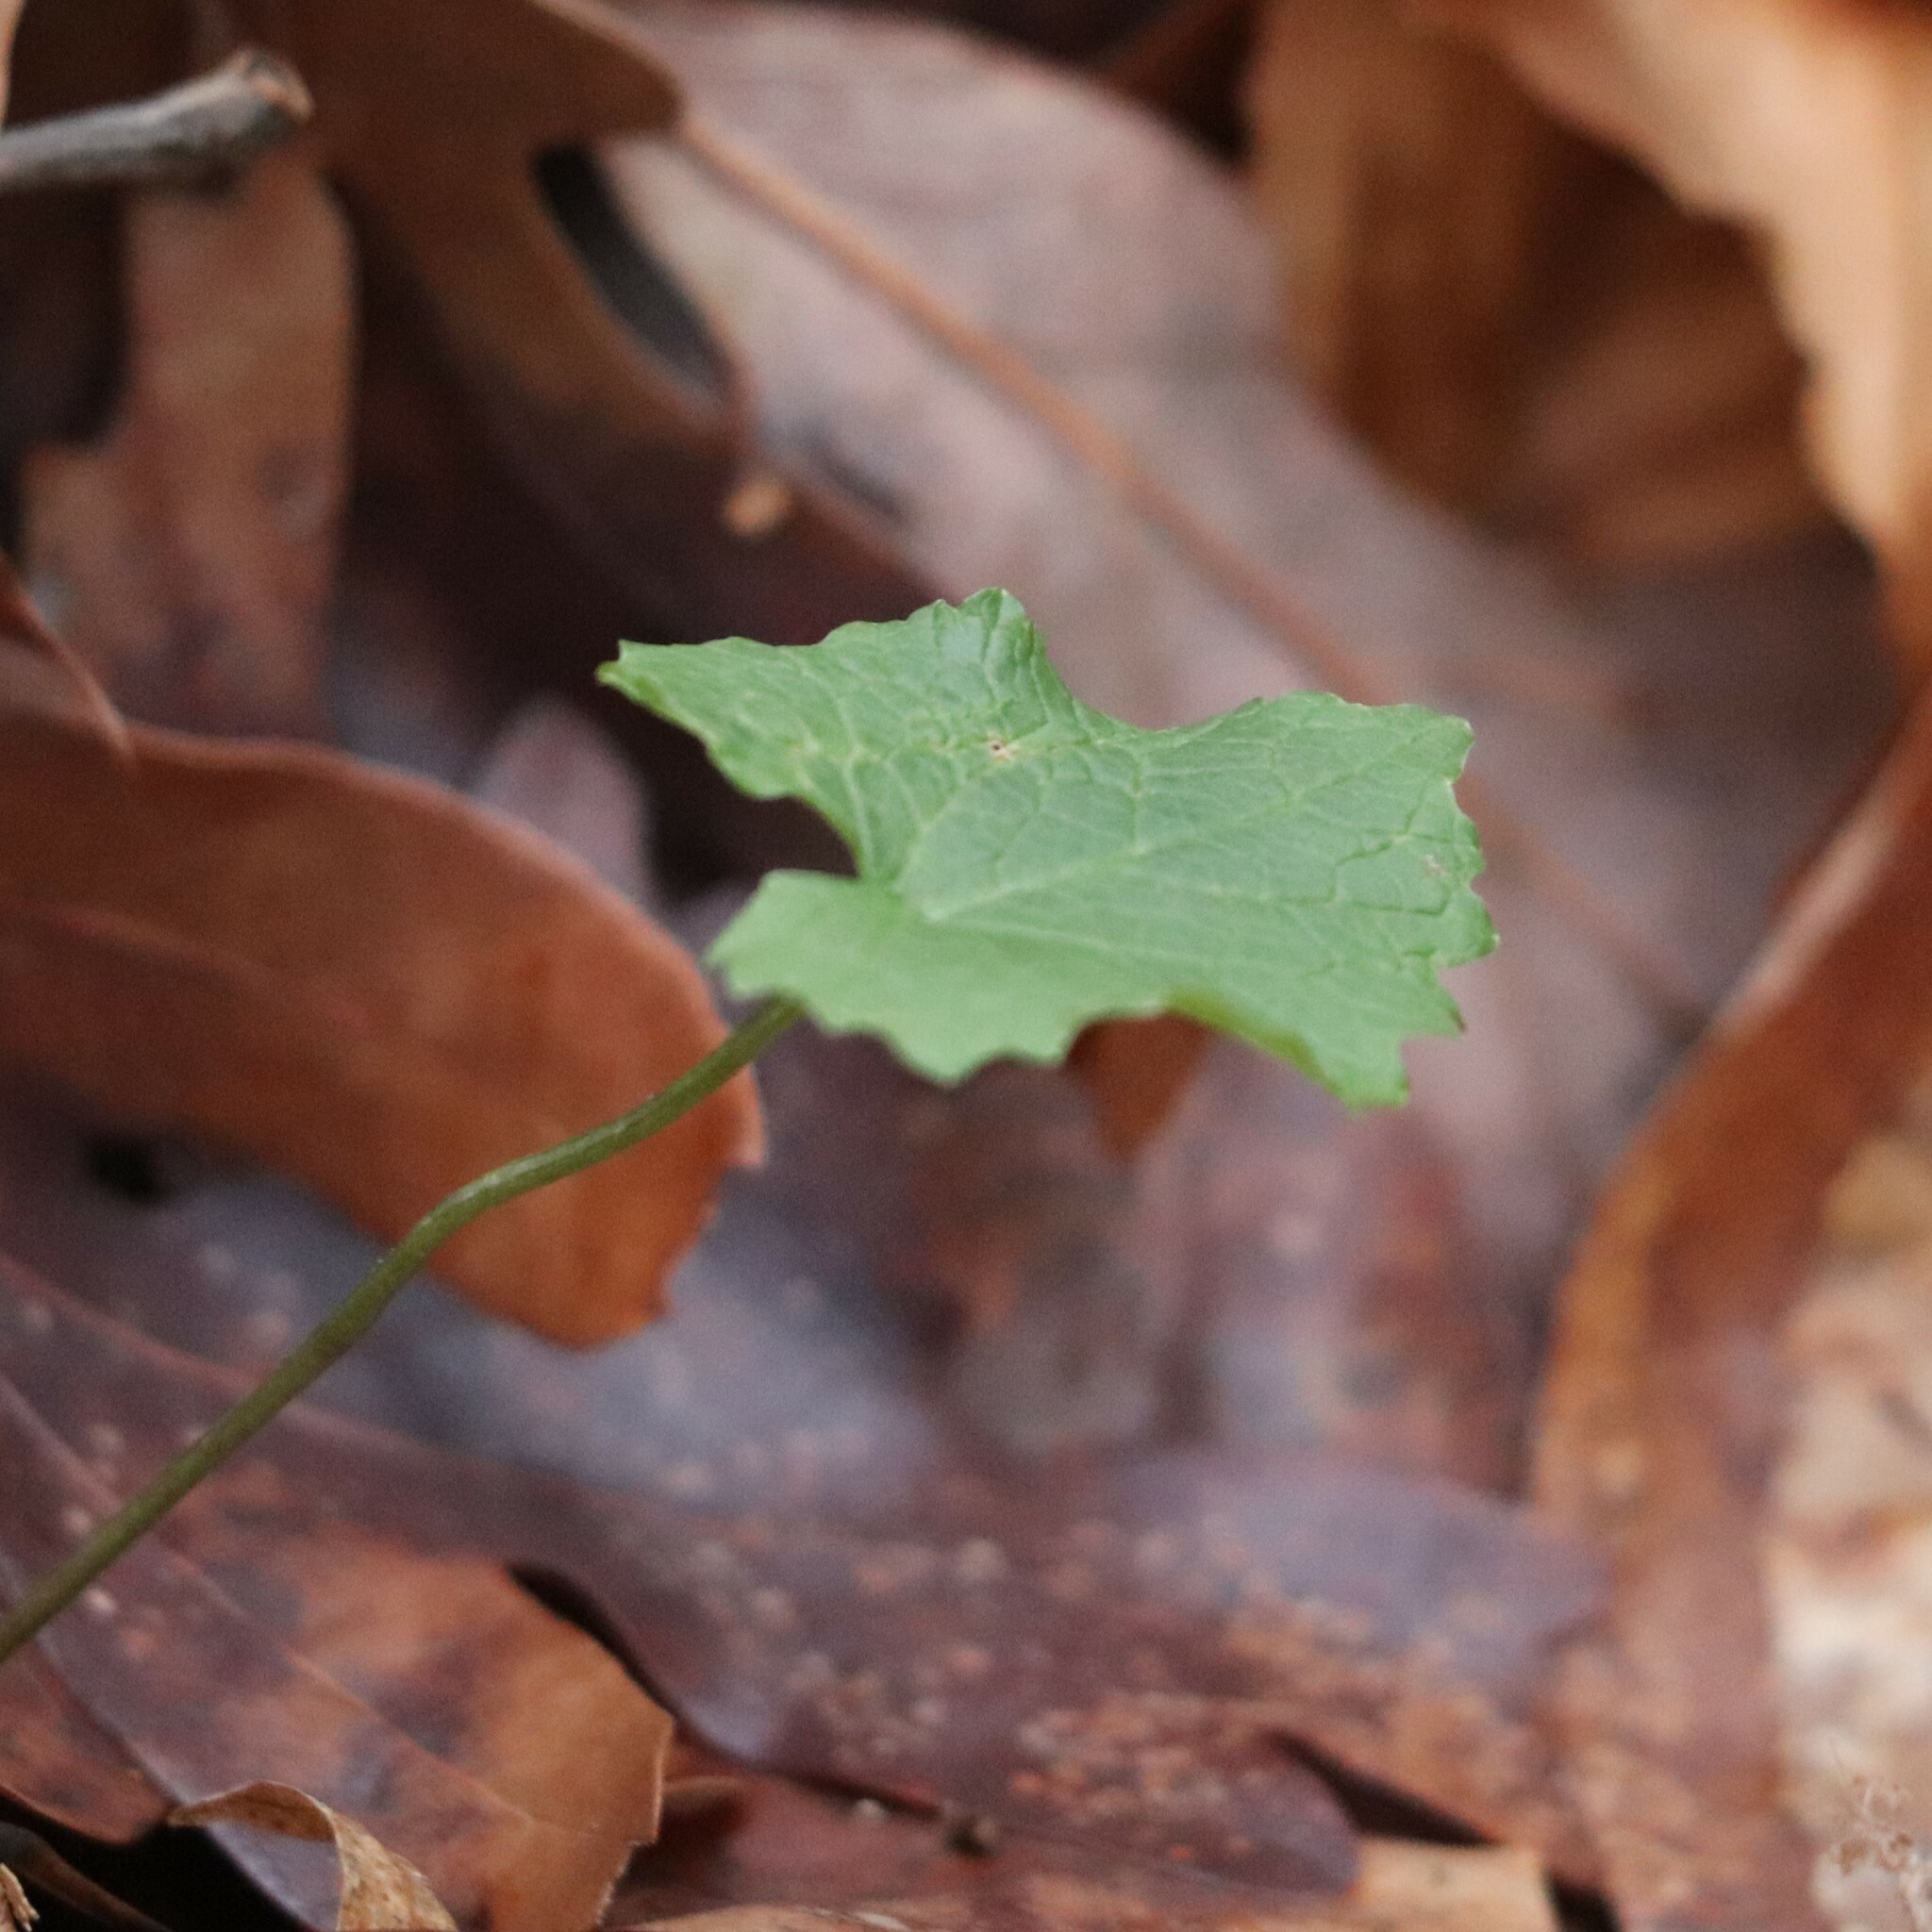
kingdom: Plantae
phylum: Tracheophyta
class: Magnoliopsida
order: Brassicales
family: Brassicaceae
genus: Alliaria
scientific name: Alliaria petiolata
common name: Garlic mustard
